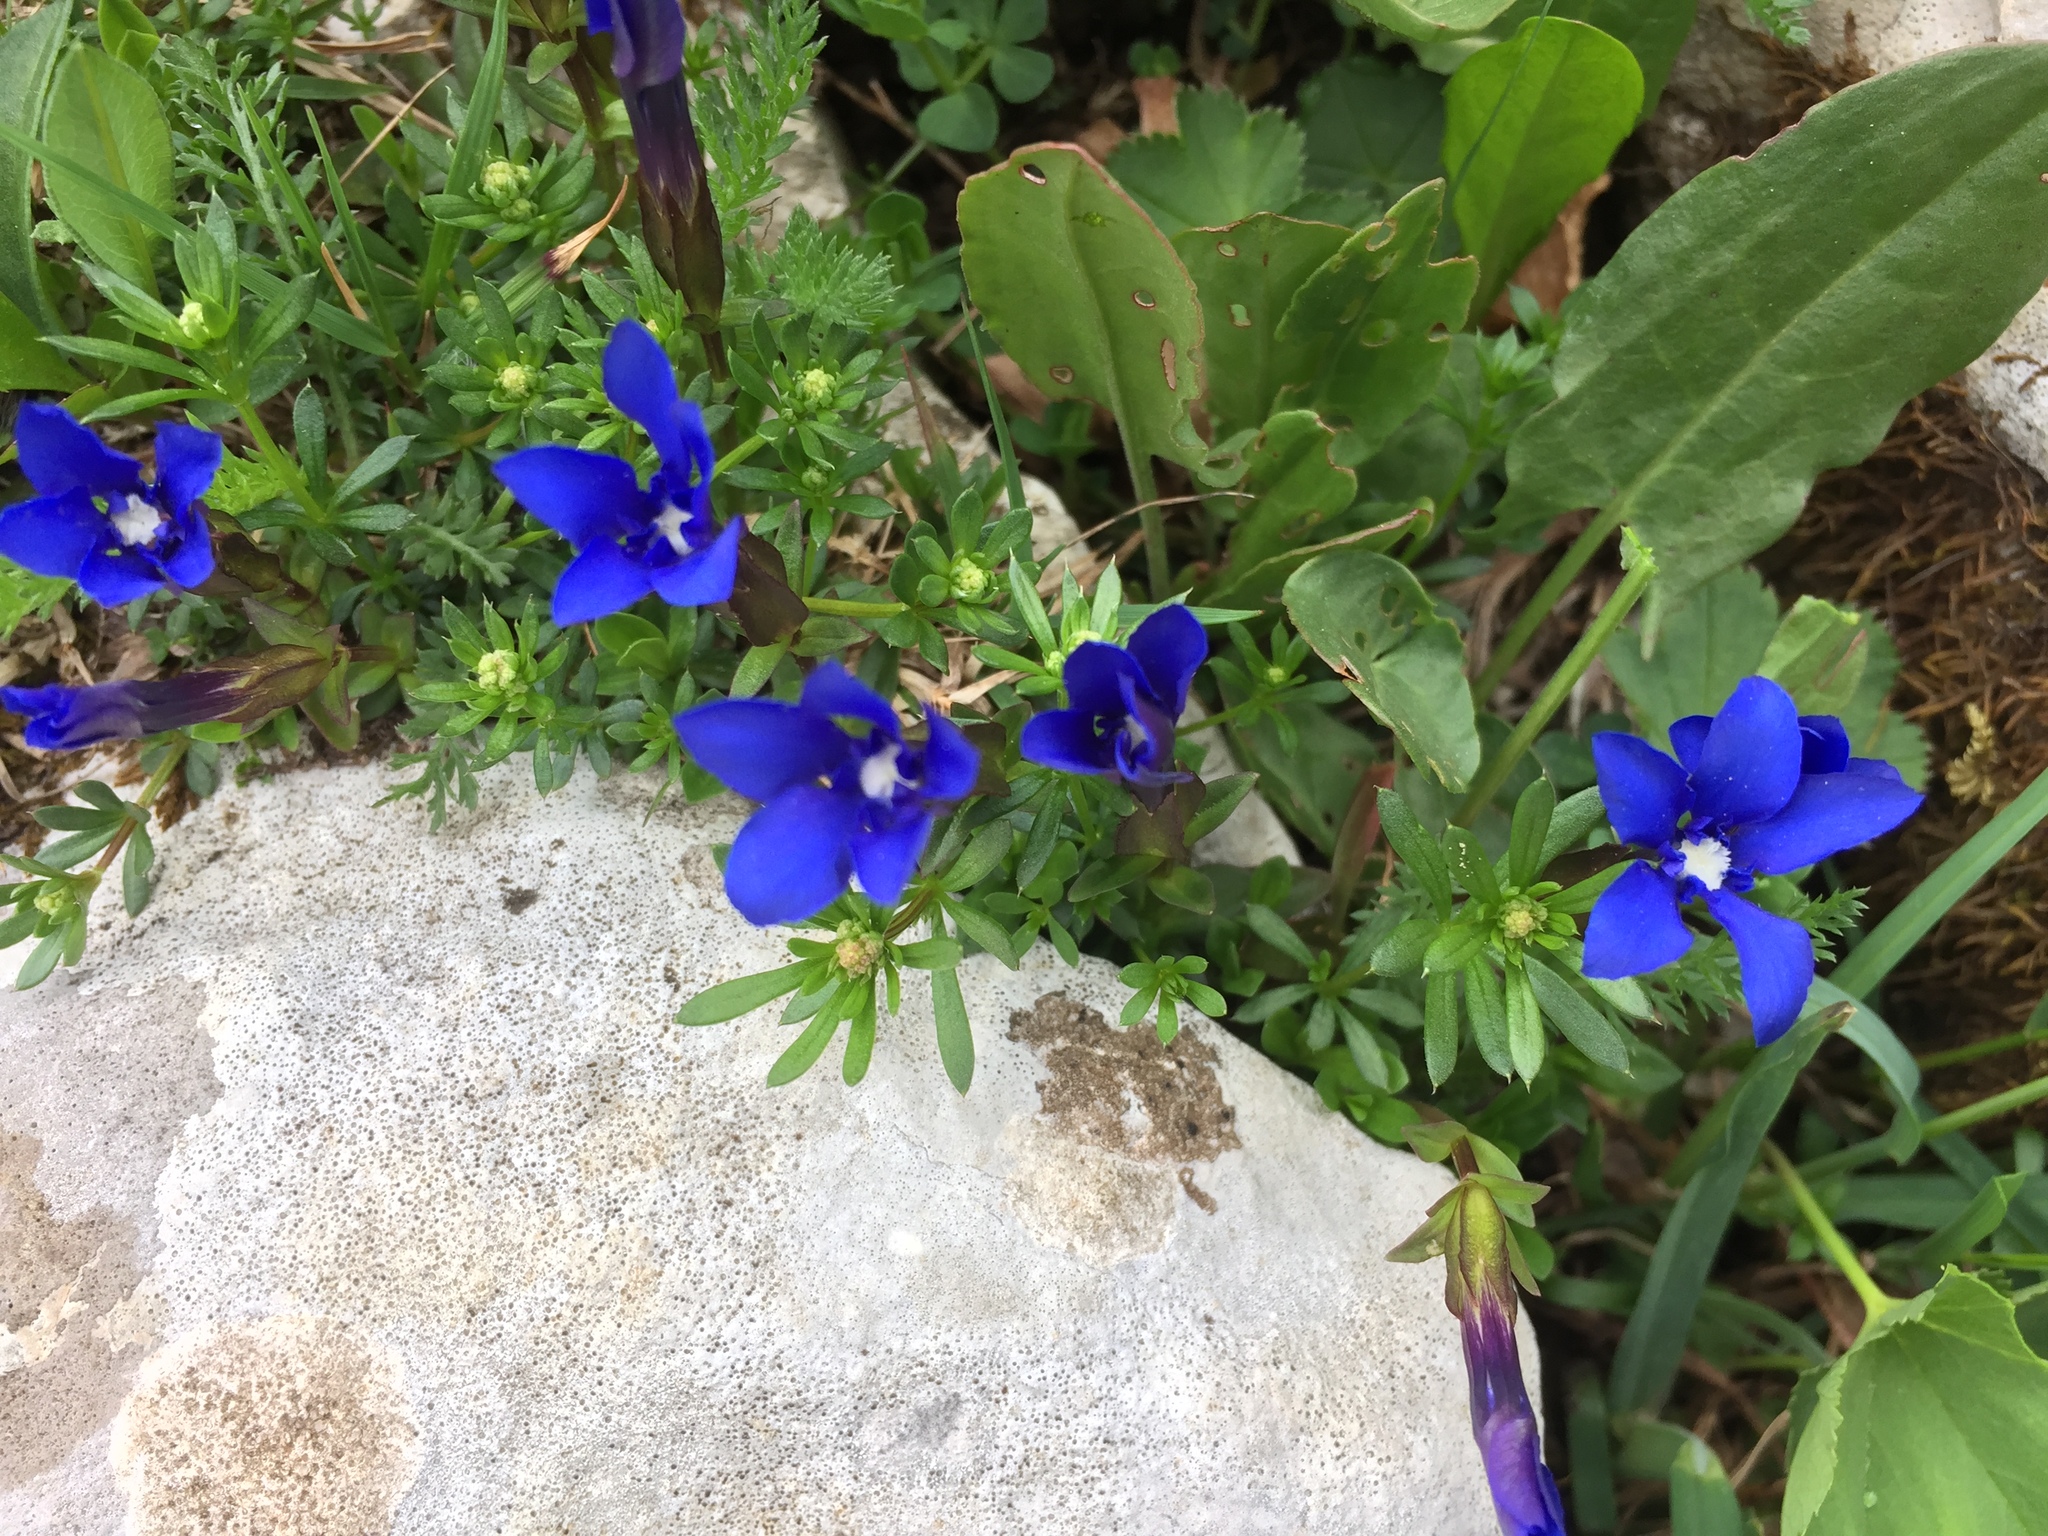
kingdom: Plantae
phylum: Tracheophyta
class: Magnoliopsida
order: Gentianales
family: Gentianaceae
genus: Gentiana
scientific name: Gentiana verna
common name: Spring gentian
